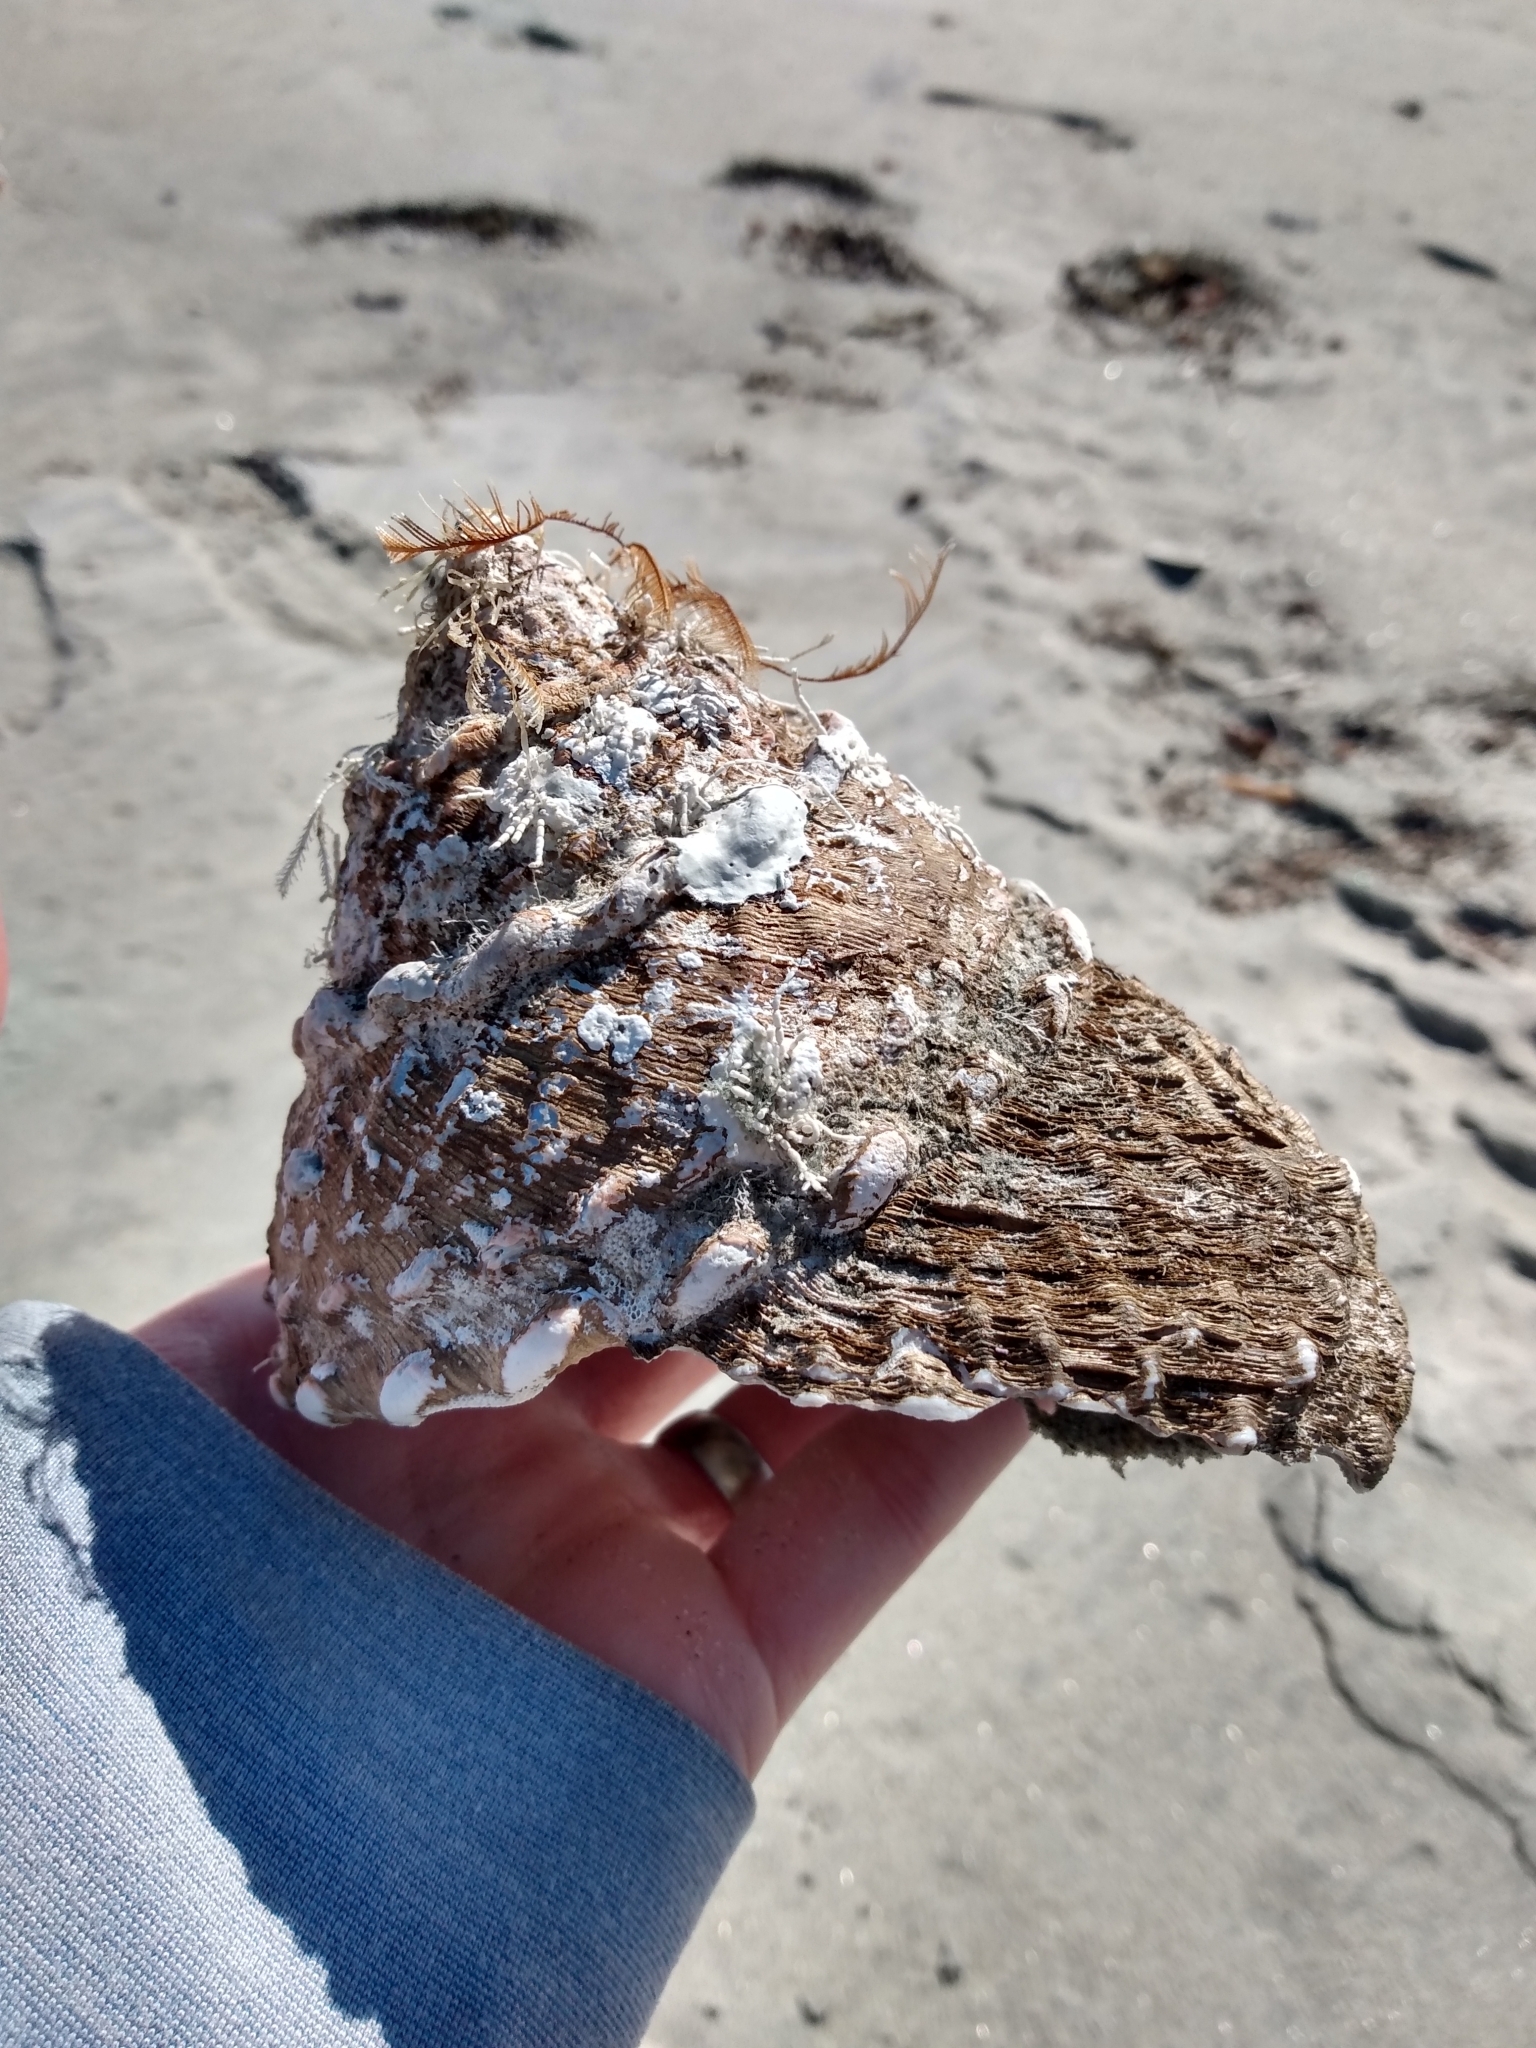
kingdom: Animalia
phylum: Mollusca
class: Gastropoda
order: Trochida
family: Turbinidae
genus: Megastraea
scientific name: Megastraea undosa
